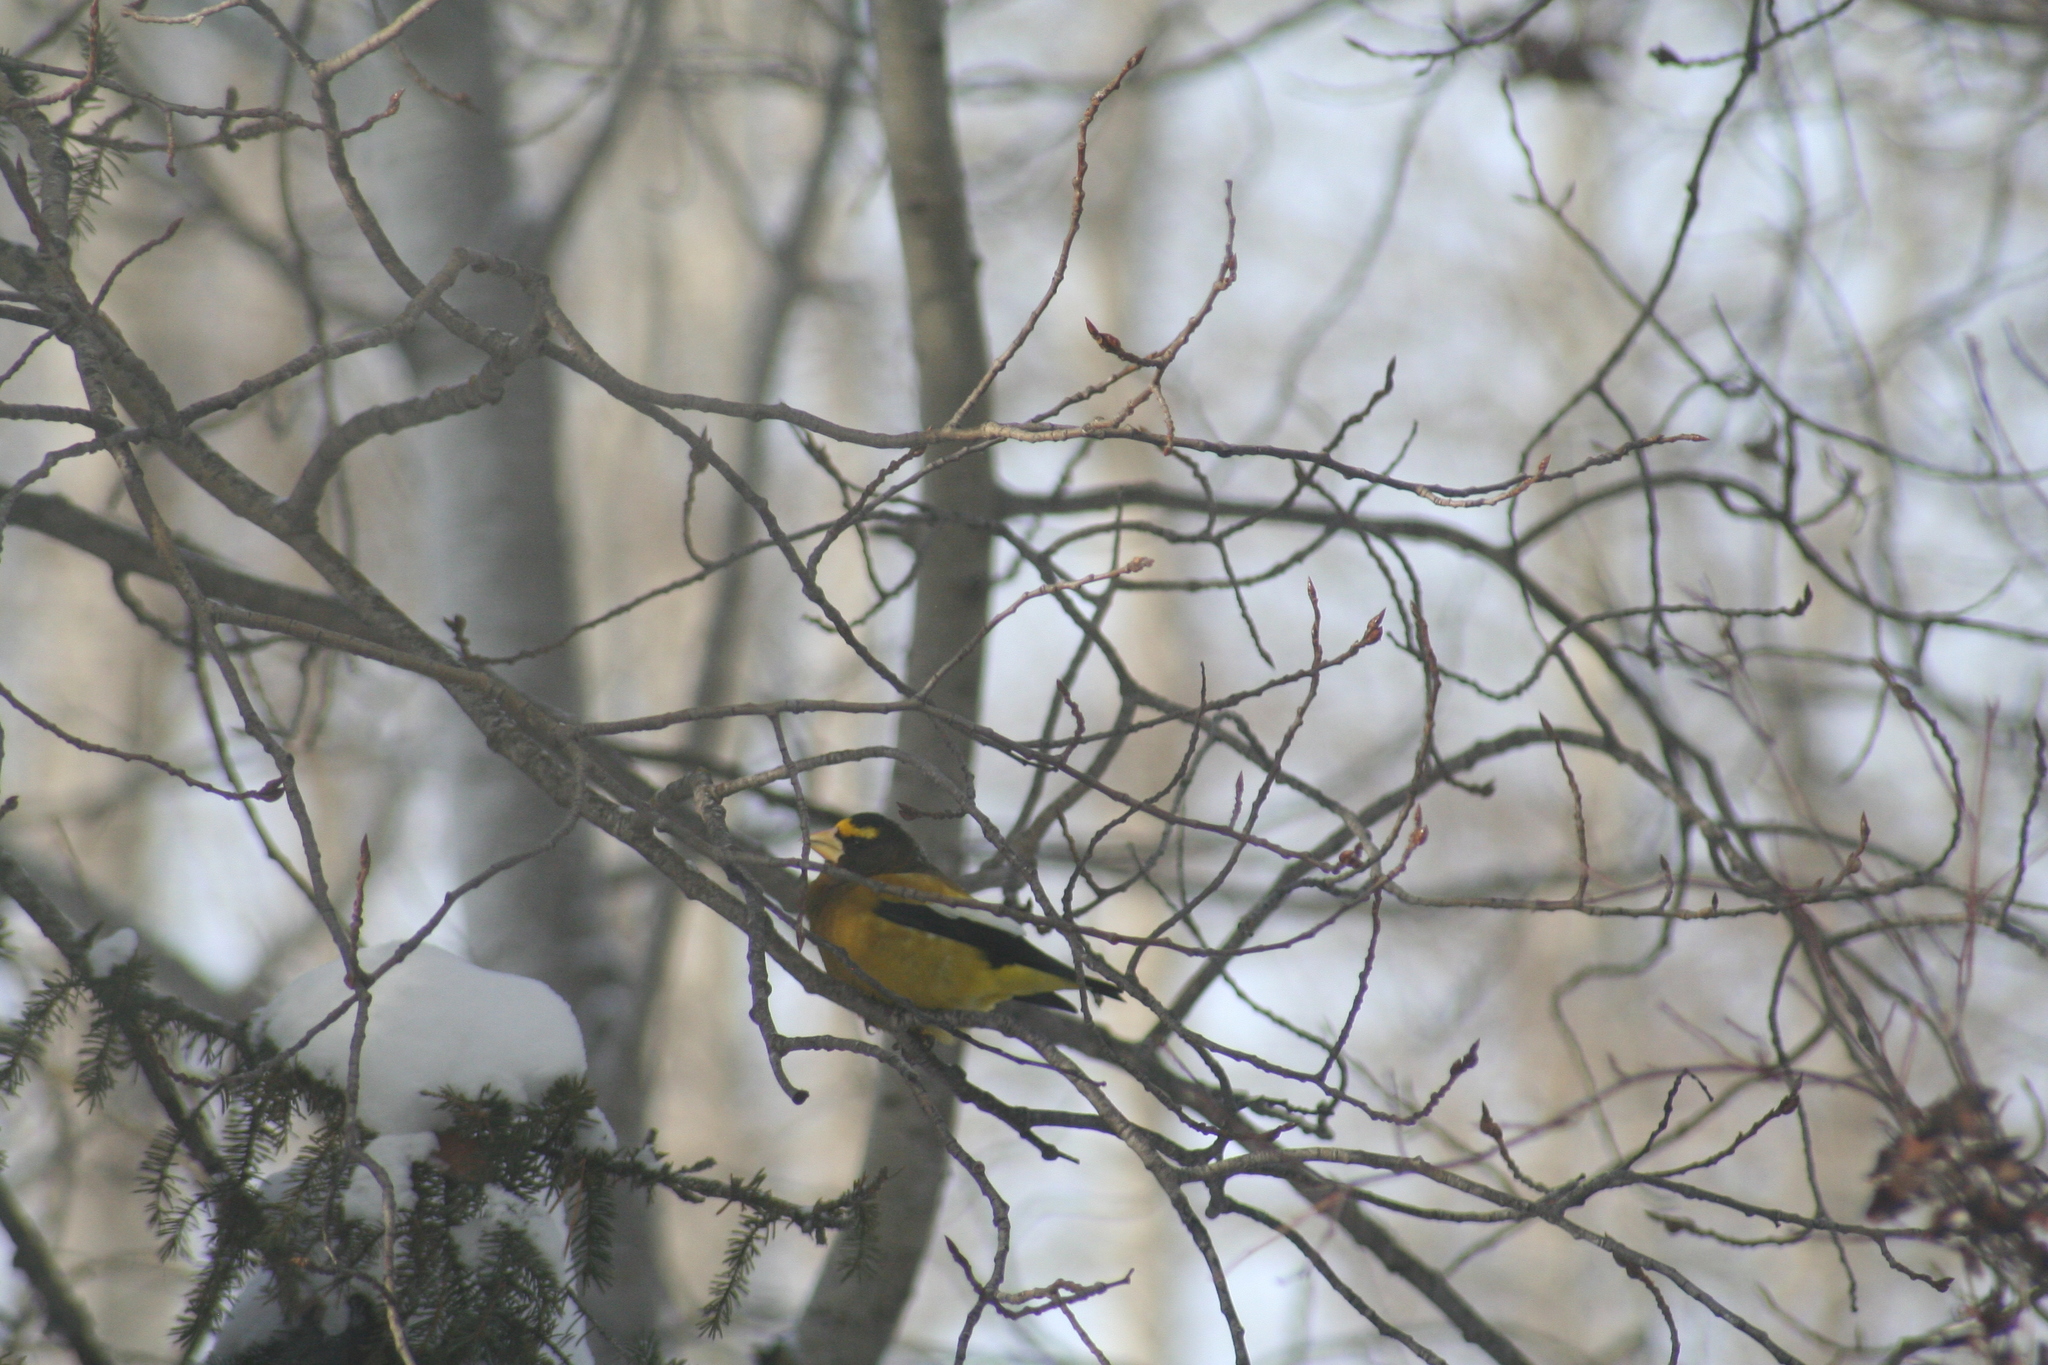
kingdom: Animalia
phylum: Chordata
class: Aves
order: Passeriformes
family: Fringillidae
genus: Hesperiphona
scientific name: Hesperiphona vespertina
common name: Evening grosbeak
